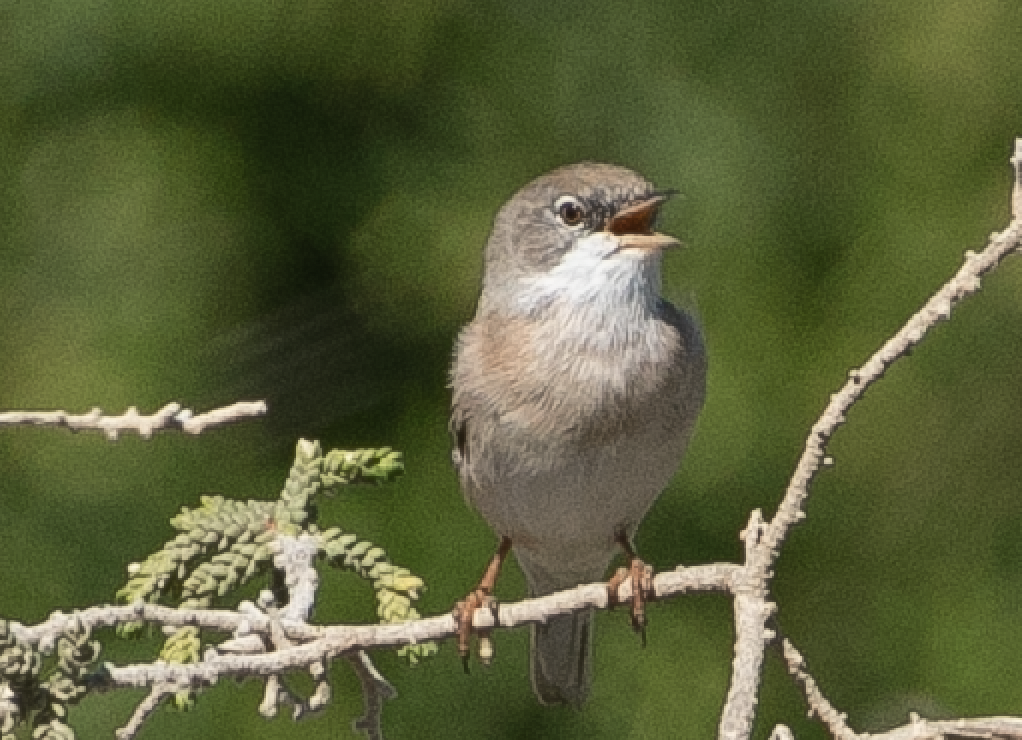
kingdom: Animalia
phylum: Chordata
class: Aves
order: Passeriformes
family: Sylviidae
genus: Sylvia
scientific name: Sylvia conspicillata
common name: Spectacled warbler
